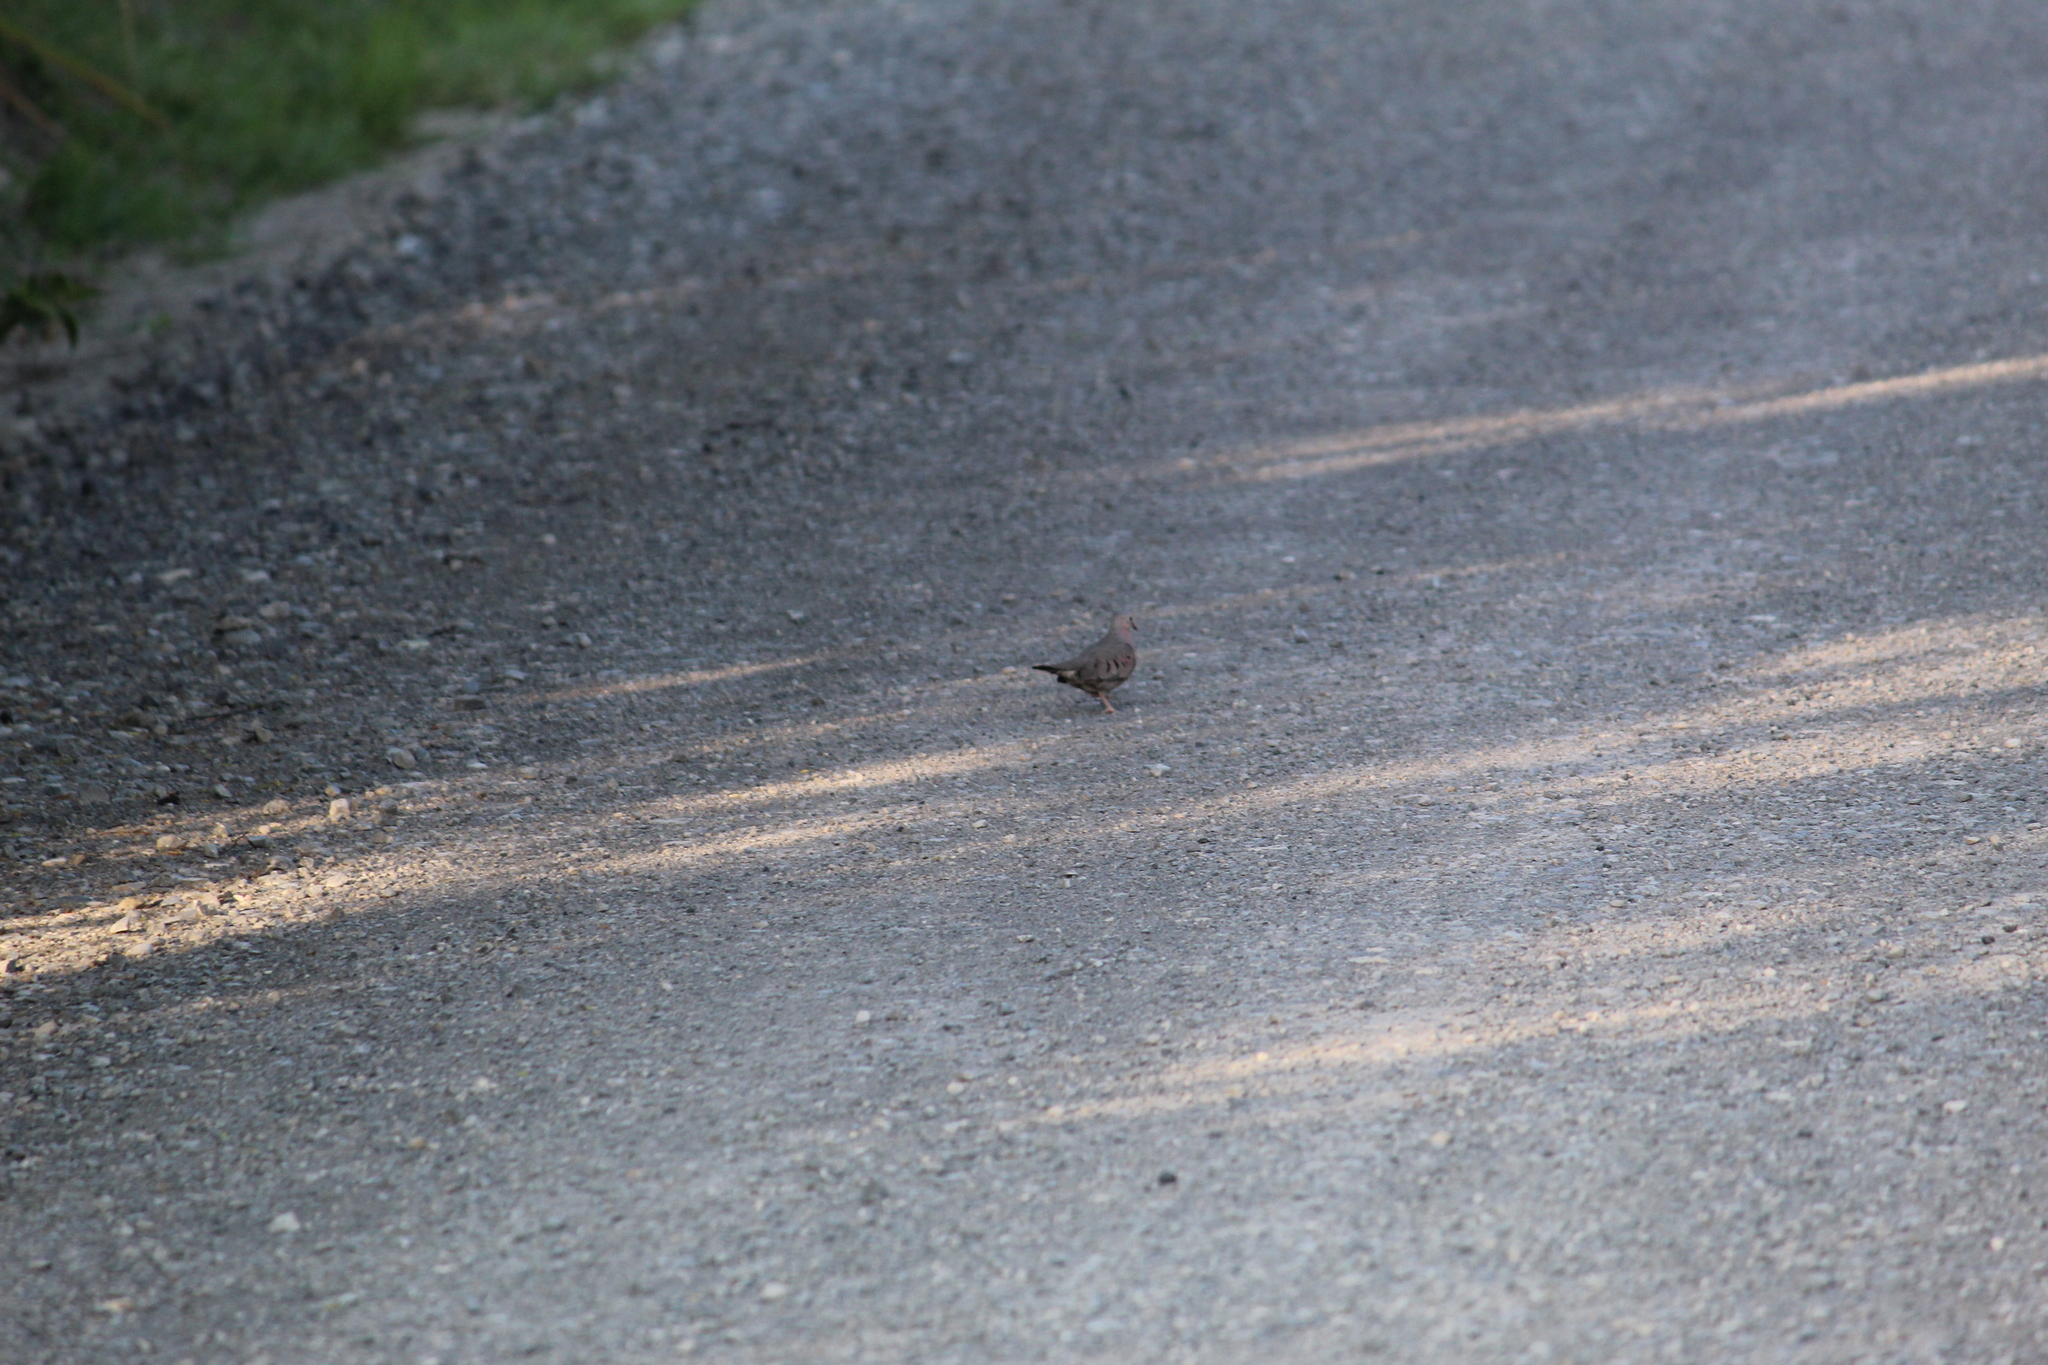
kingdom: Animalia
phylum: Chordata
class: Aves
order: Columbiformes
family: Columbidae
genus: Columbina
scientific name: Columbina passerina
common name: Common ground-dove
